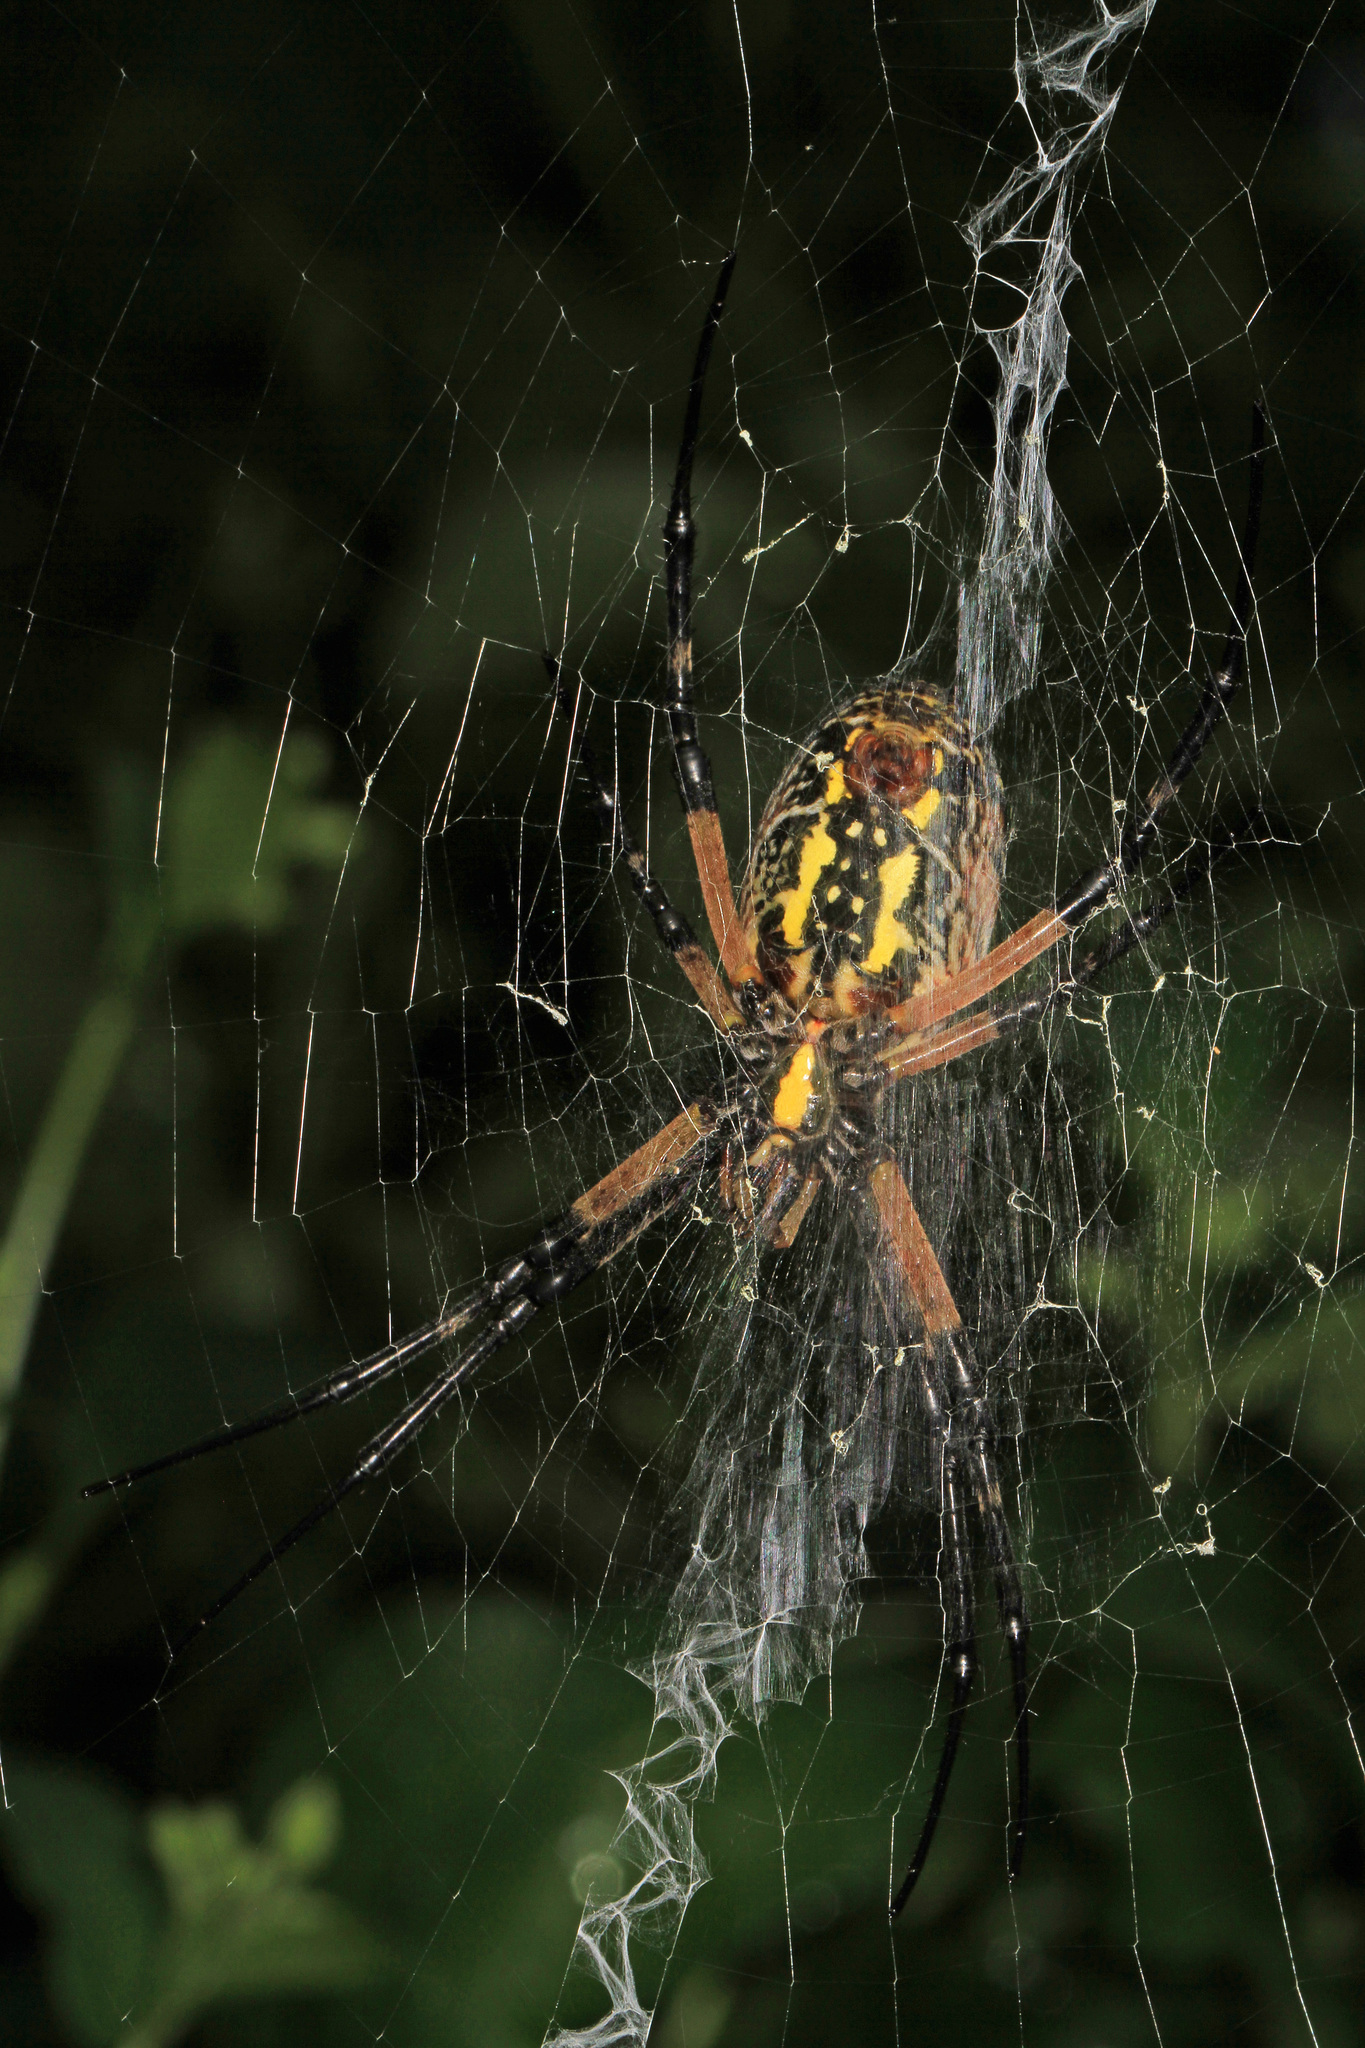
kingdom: Animalia
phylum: Arthropoda
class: Arachnida
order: Araneae
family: Araneidae
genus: Argiope
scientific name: Argiope aurantia
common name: Orb weavers
